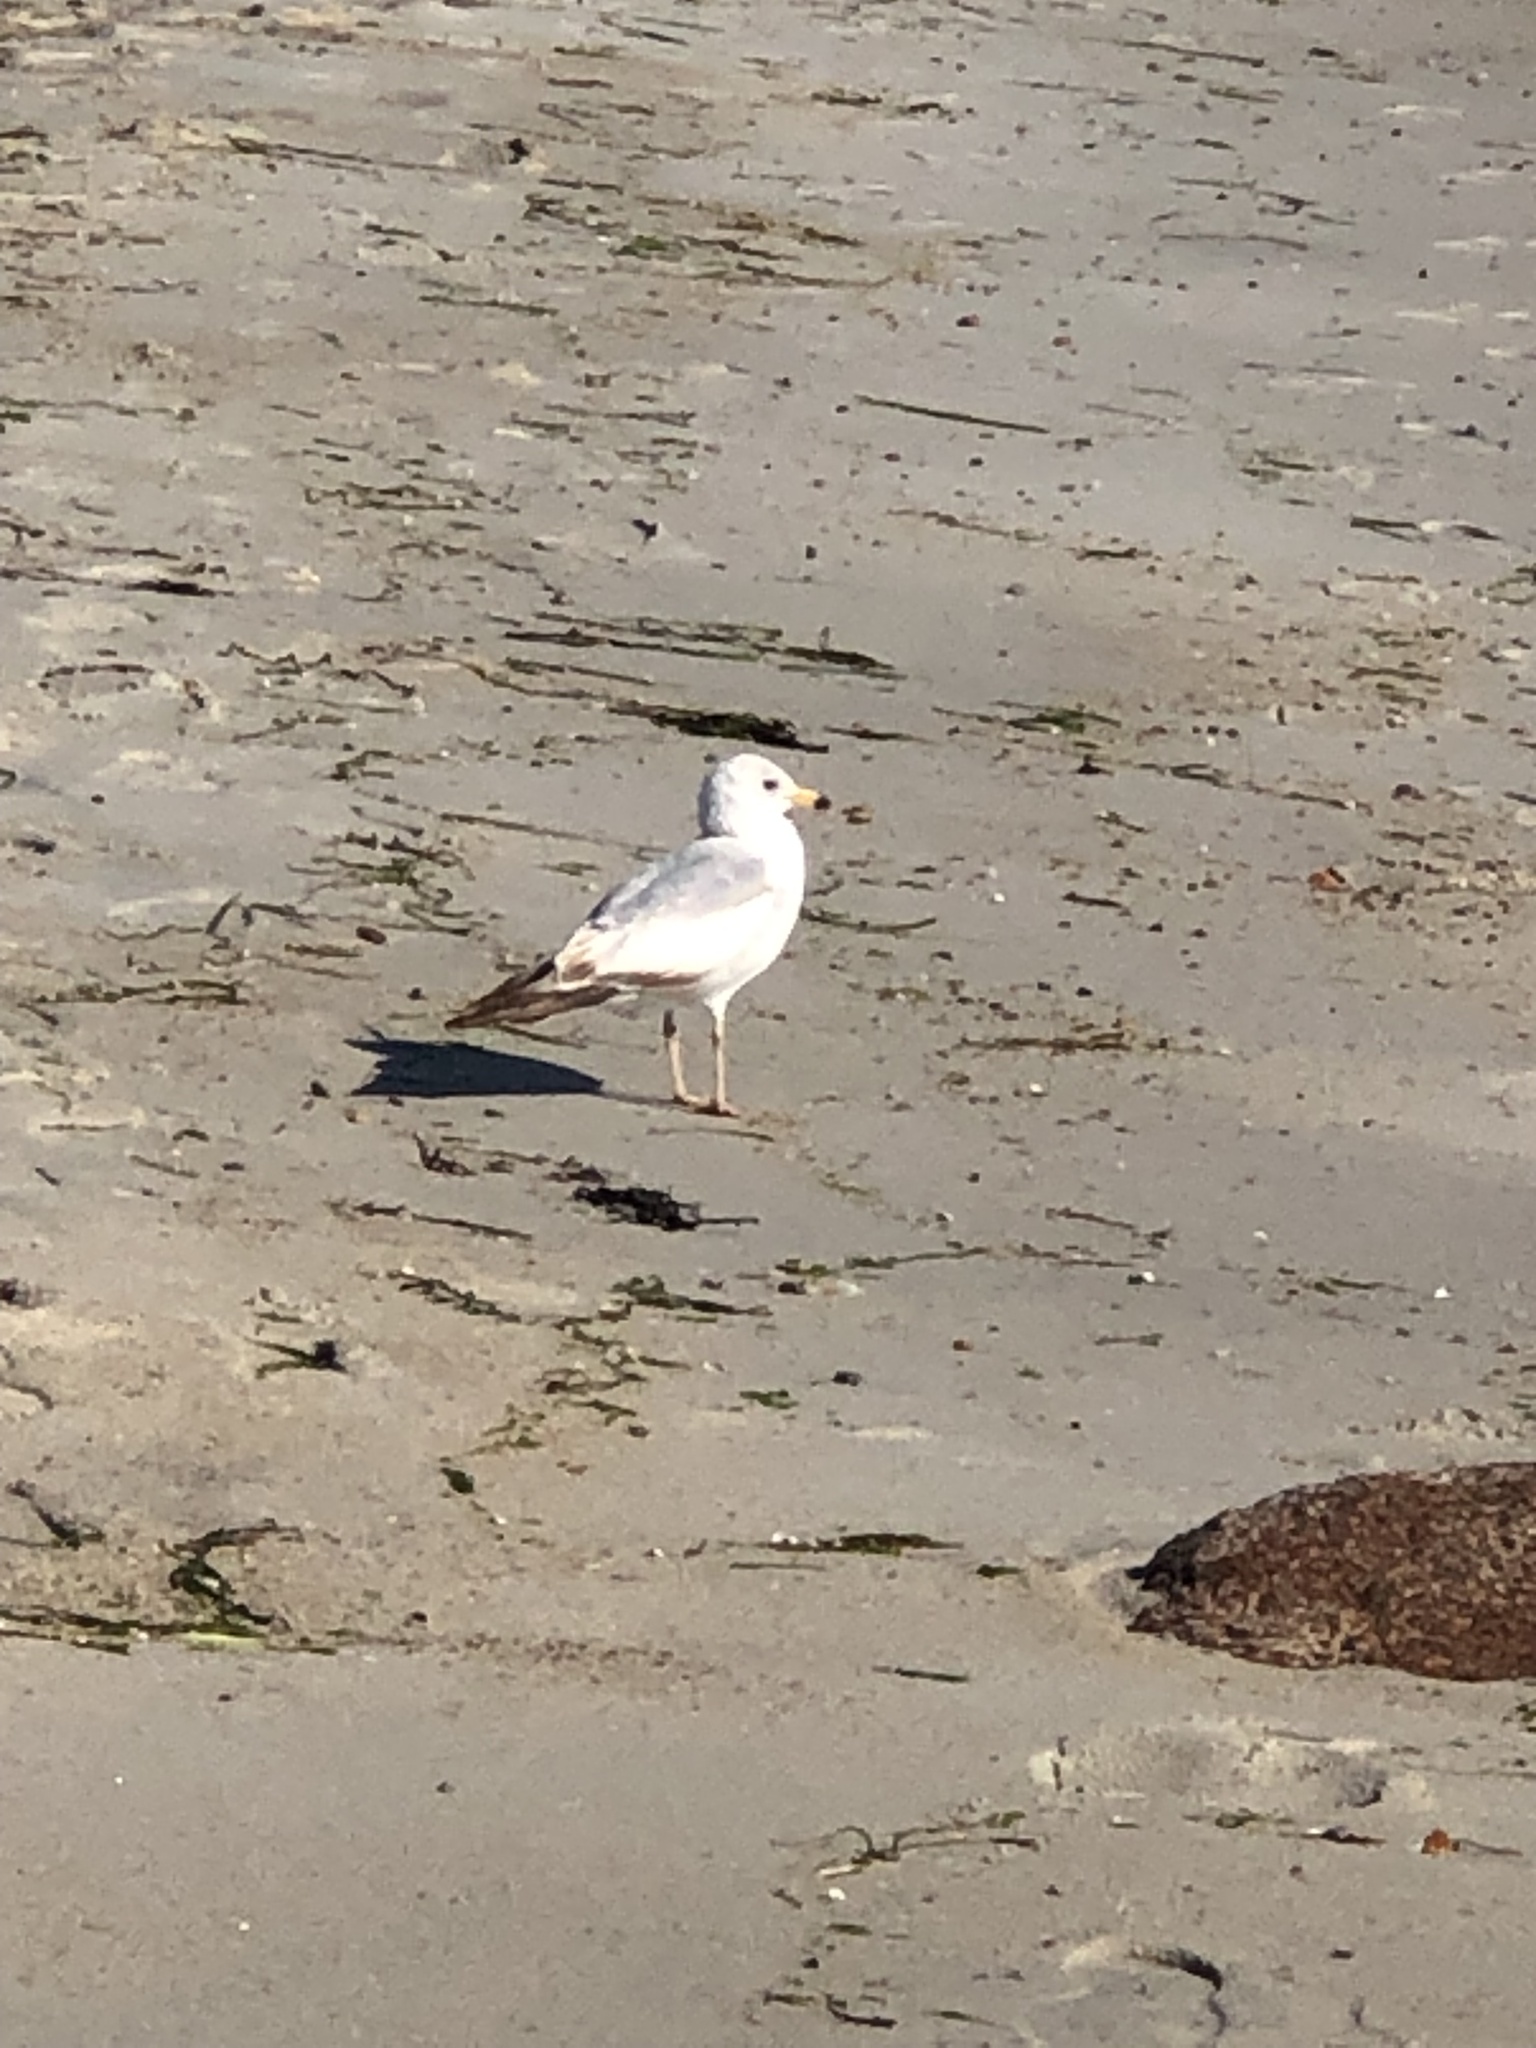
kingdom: Animalia
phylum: Chordata
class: Aves
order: Charadriiformes
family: Laridae
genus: Larus
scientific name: Larus delawarensis
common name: Ring-billed gull
